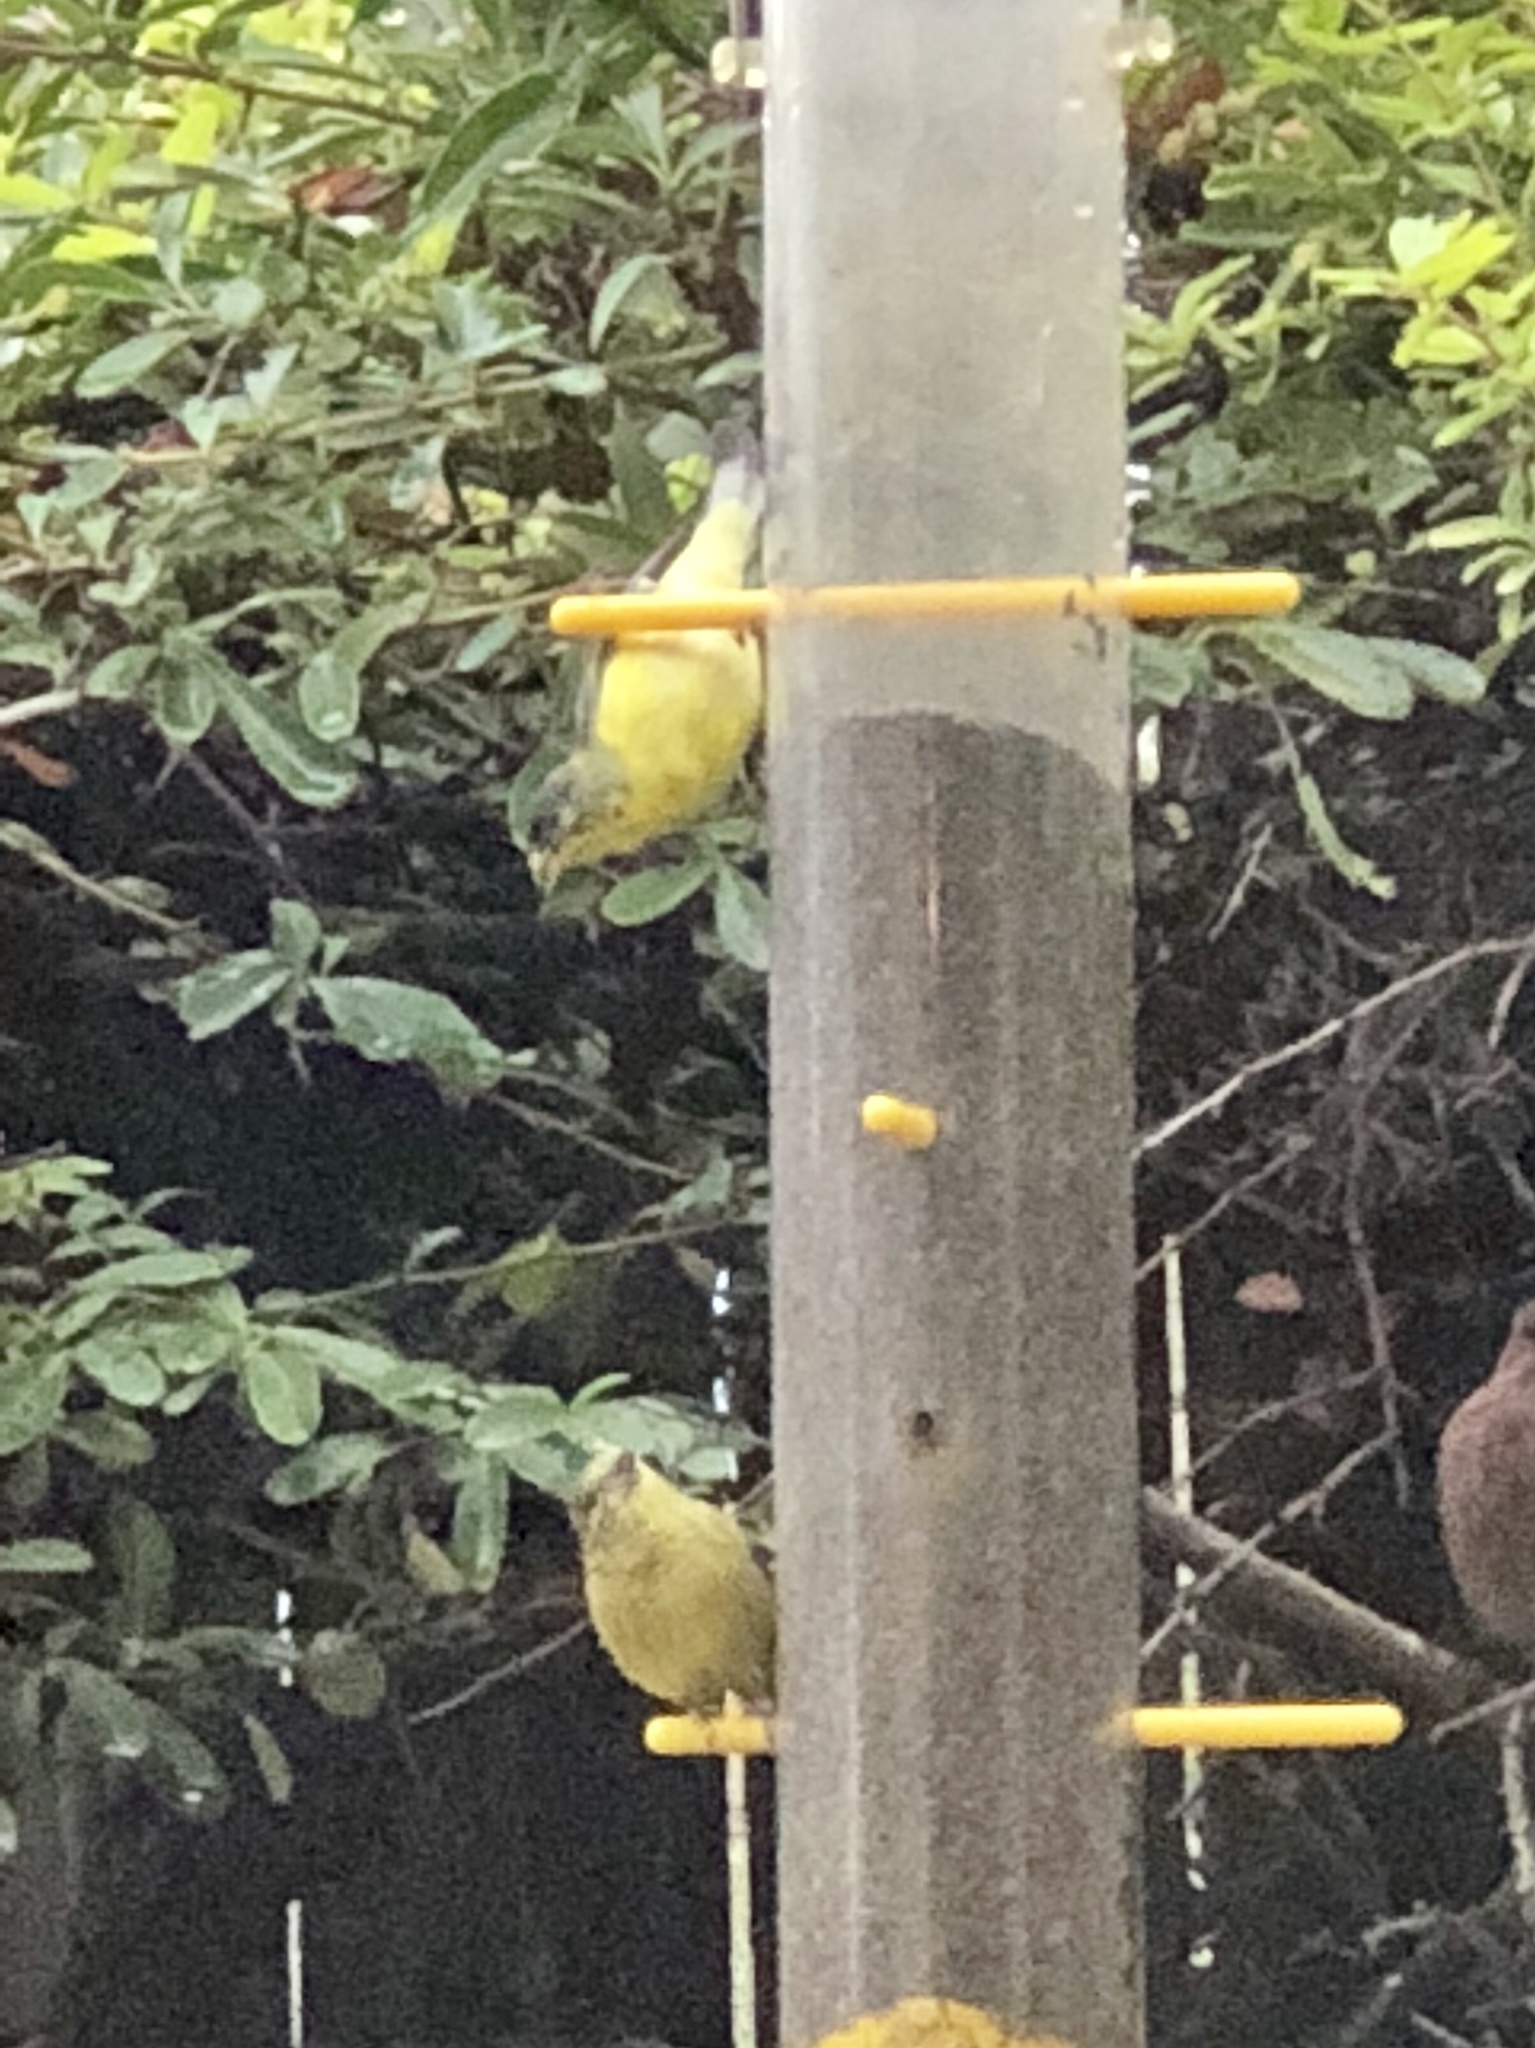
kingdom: Animalia
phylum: Chordata
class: Aves
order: Passeriformes
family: Fringillidae
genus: Spinus
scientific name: Spinus psaltria
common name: Lesser goldfinch
